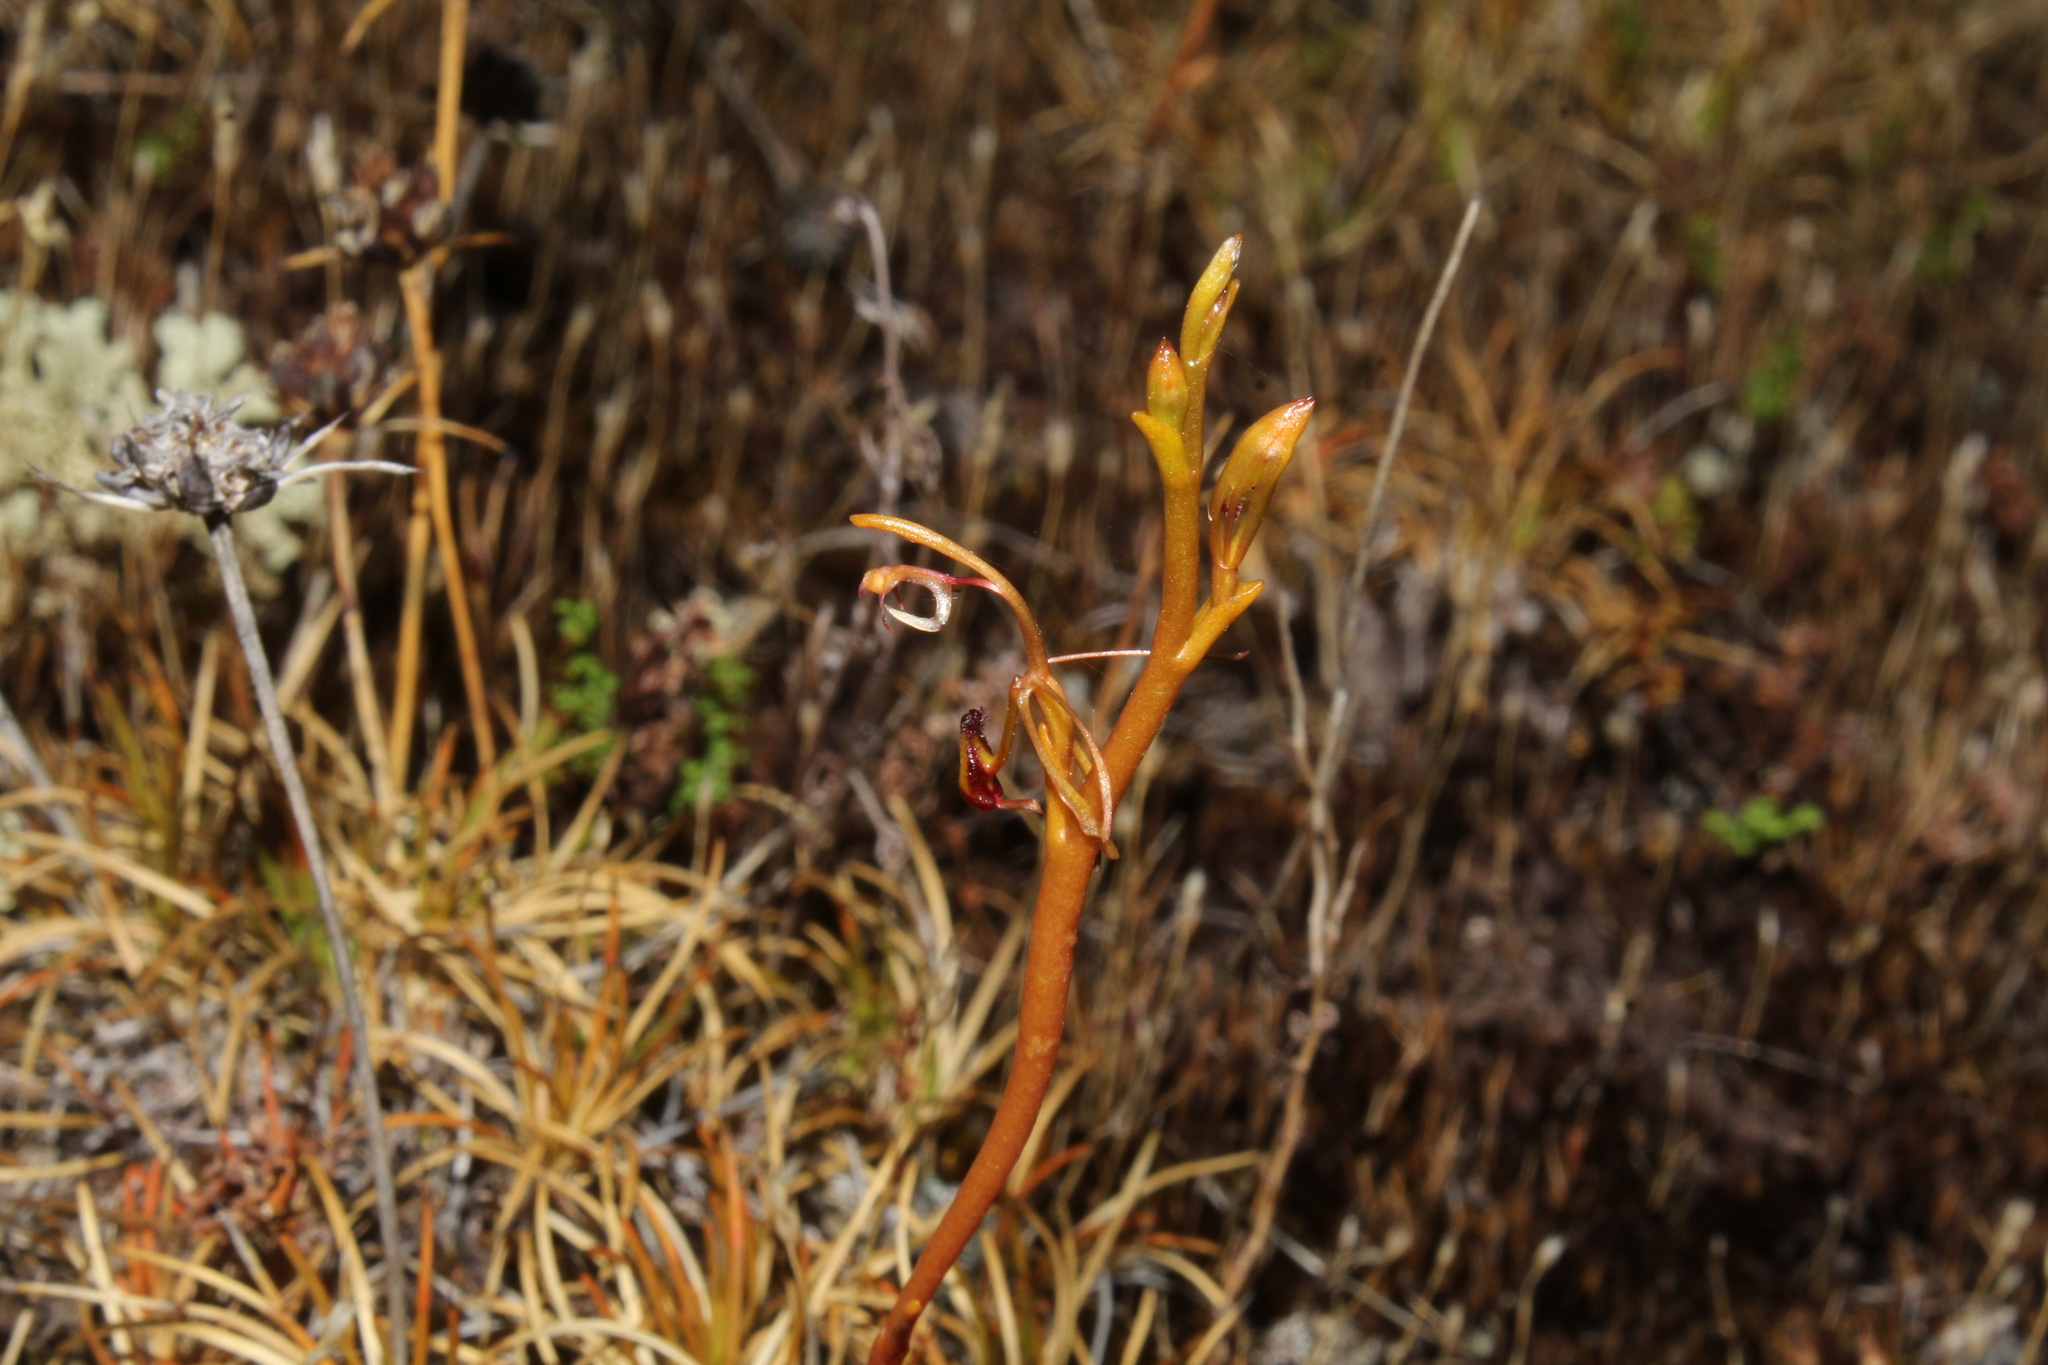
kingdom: Plantae
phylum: Tracheophyta
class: Liliopsida
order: Asparagales
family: Orchidaceae
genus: Spiculaea
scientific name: Spiculaea ciliata
